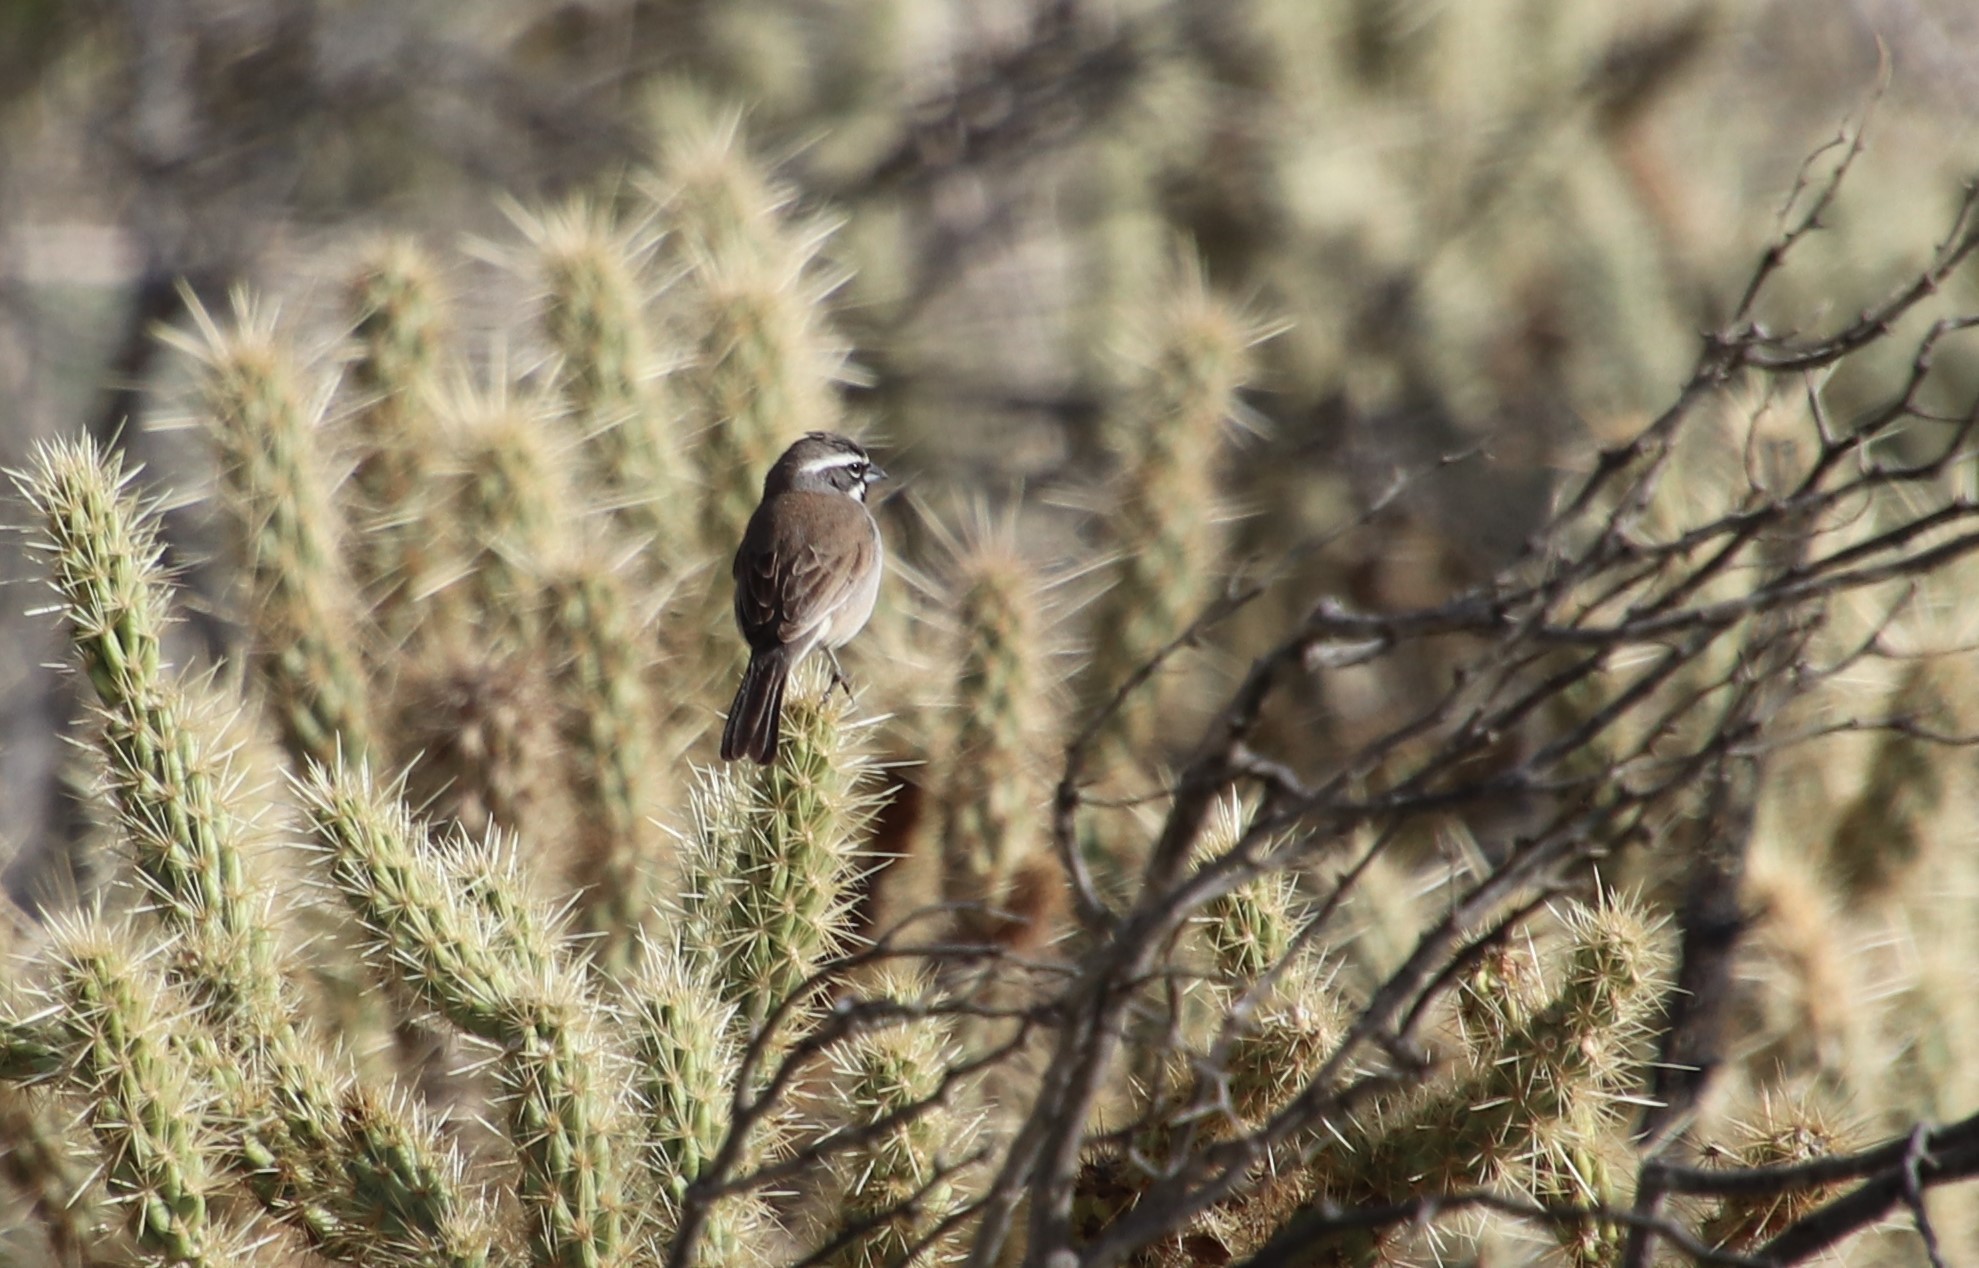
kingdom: Animalia
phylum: Chordata
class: Aves
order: Passeriformes
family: Passerellidae
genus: Amphispiza
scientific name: Amphispiza bilineata
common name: Black-throated sparrow
